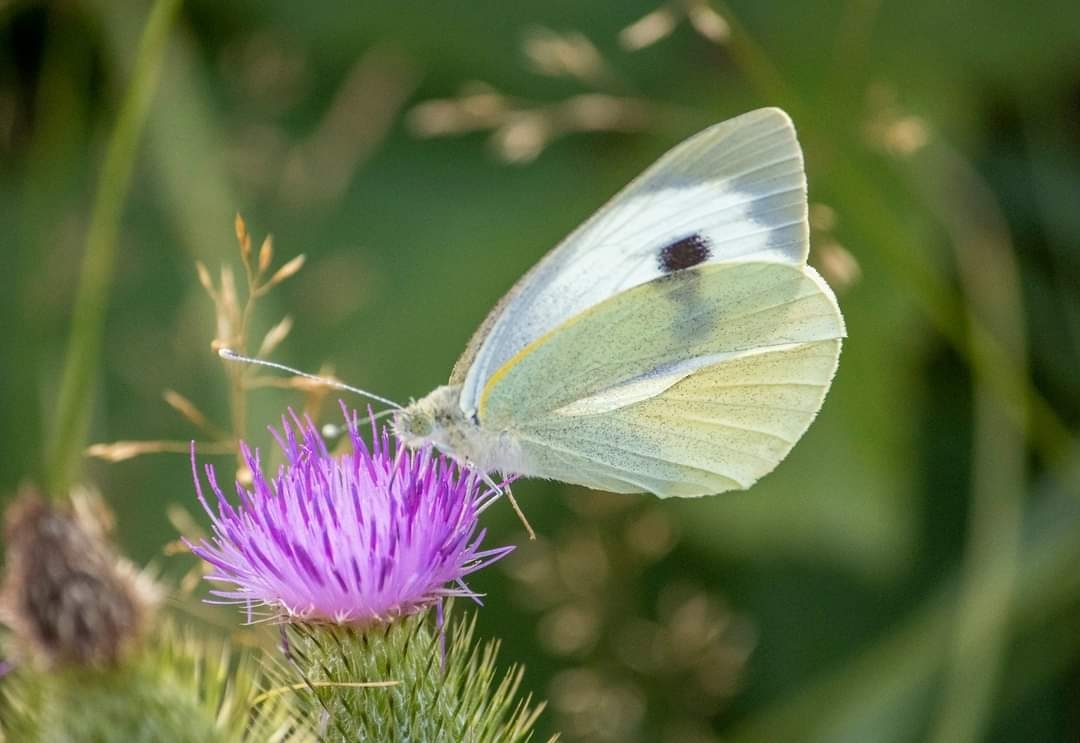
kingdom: Animalia
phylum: Arthropoda
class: Insecta
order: Lepidoptera
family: Pieridae
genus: Pieris
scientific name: Pieris brassicae
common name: Large white
